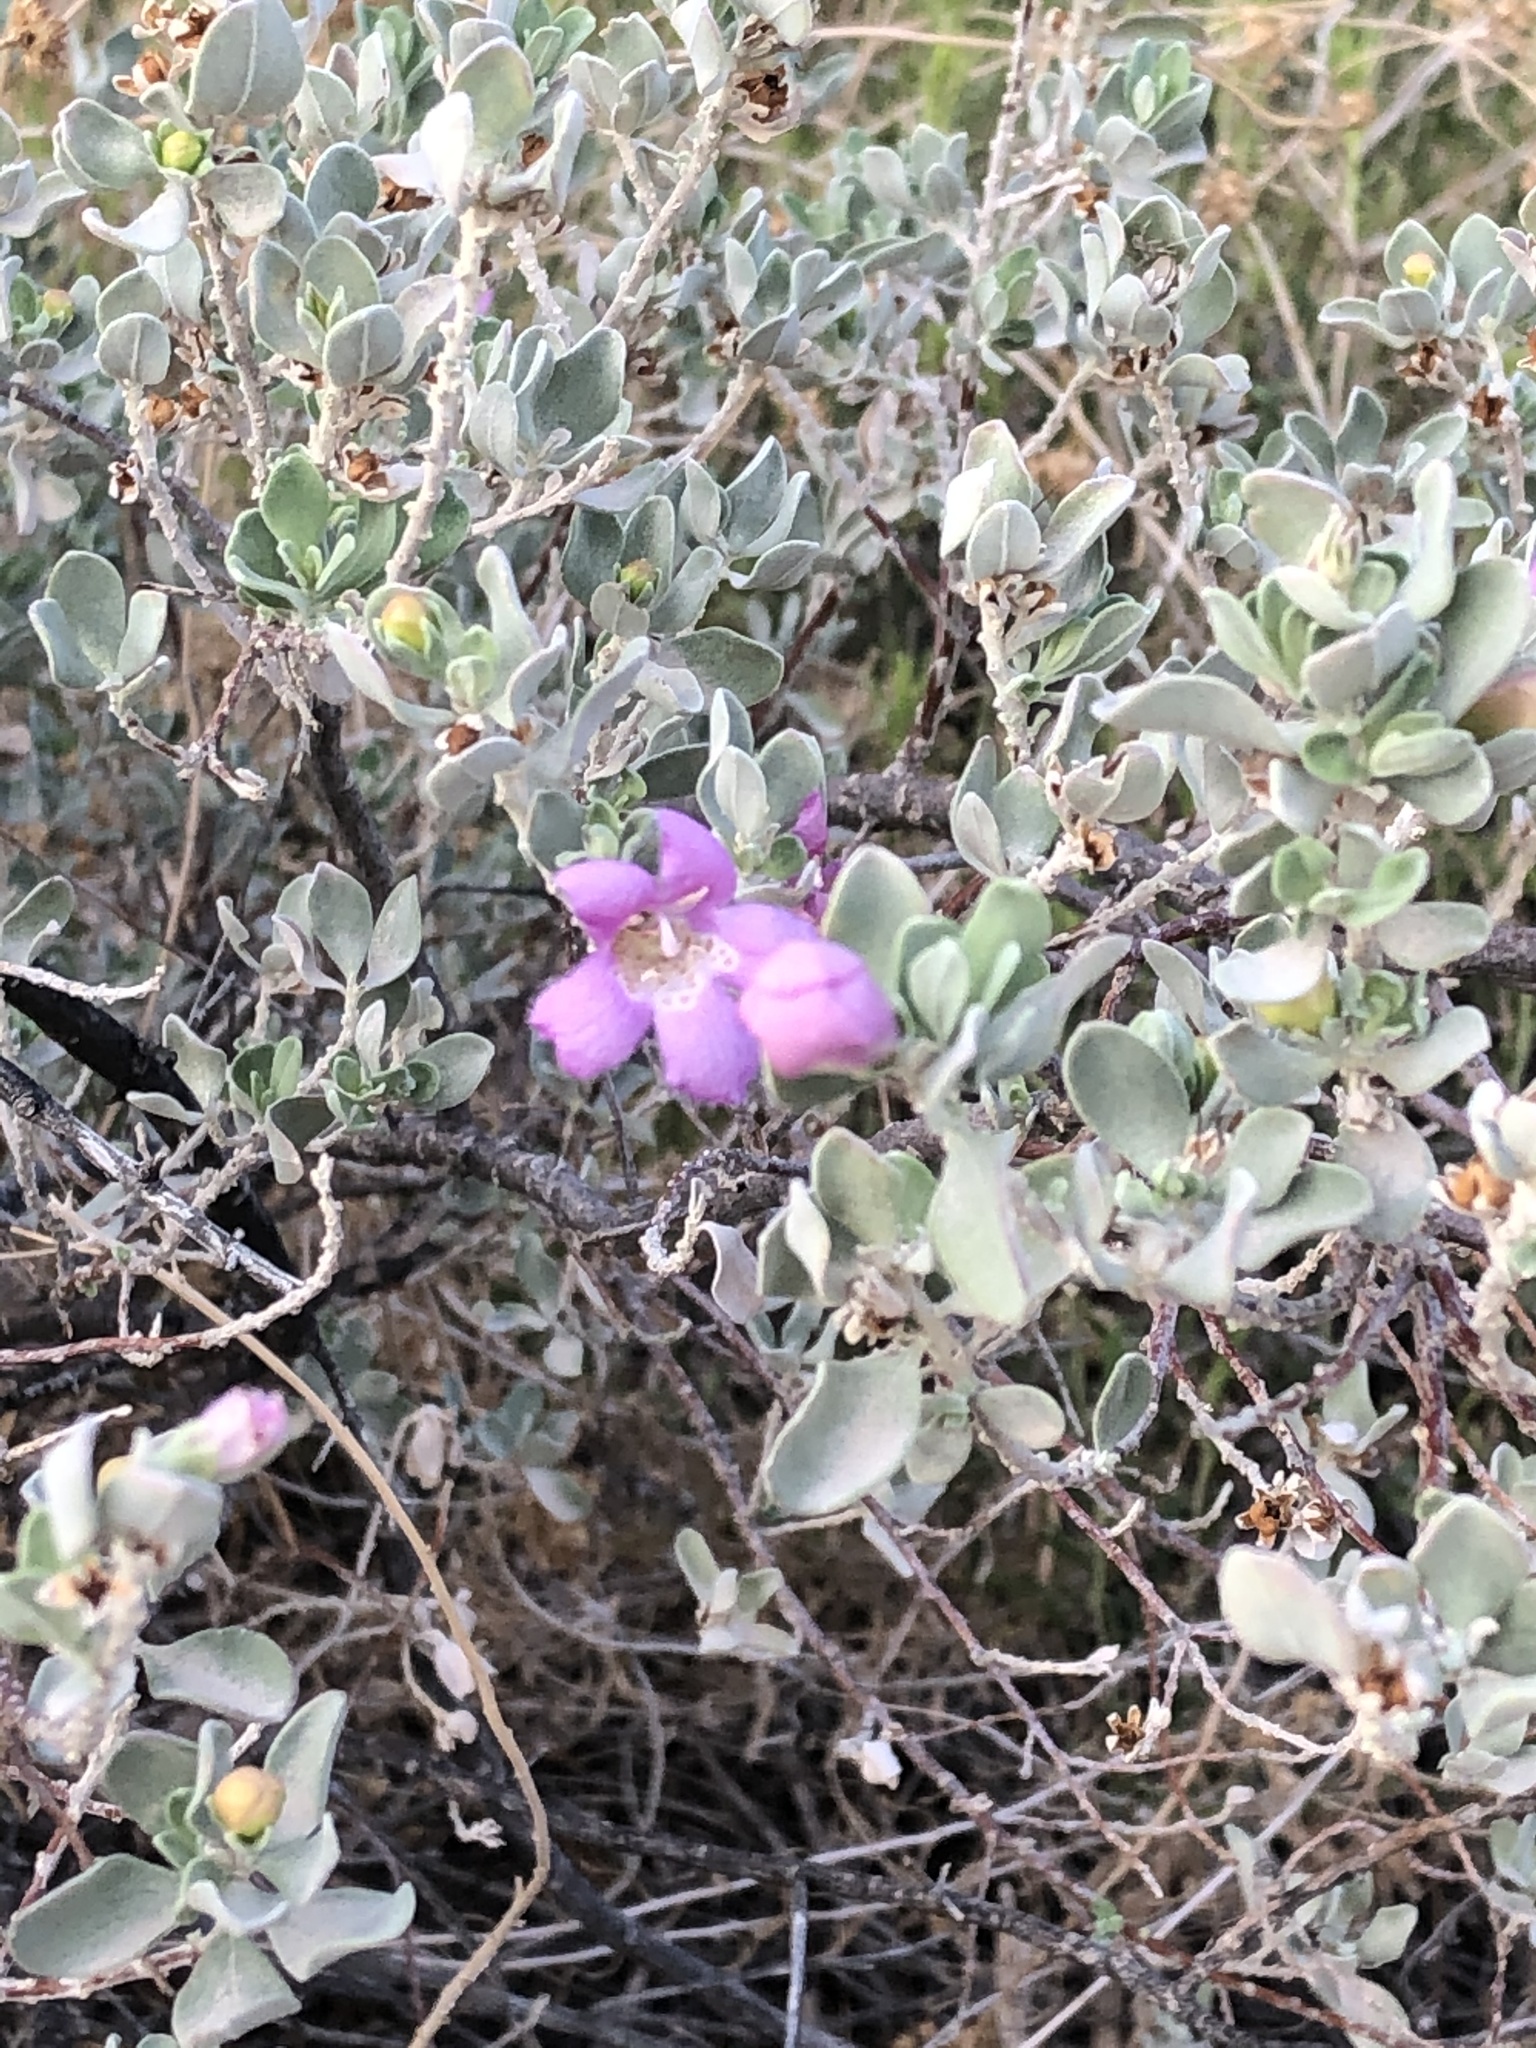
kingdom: Plantae
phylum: Tracheophyta
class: Magnoliopsida
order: Lamiales
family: Scrophulariaceae
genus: Leucophyllum
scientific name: Leucophyllum frutescens
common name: Texas silverleaf
